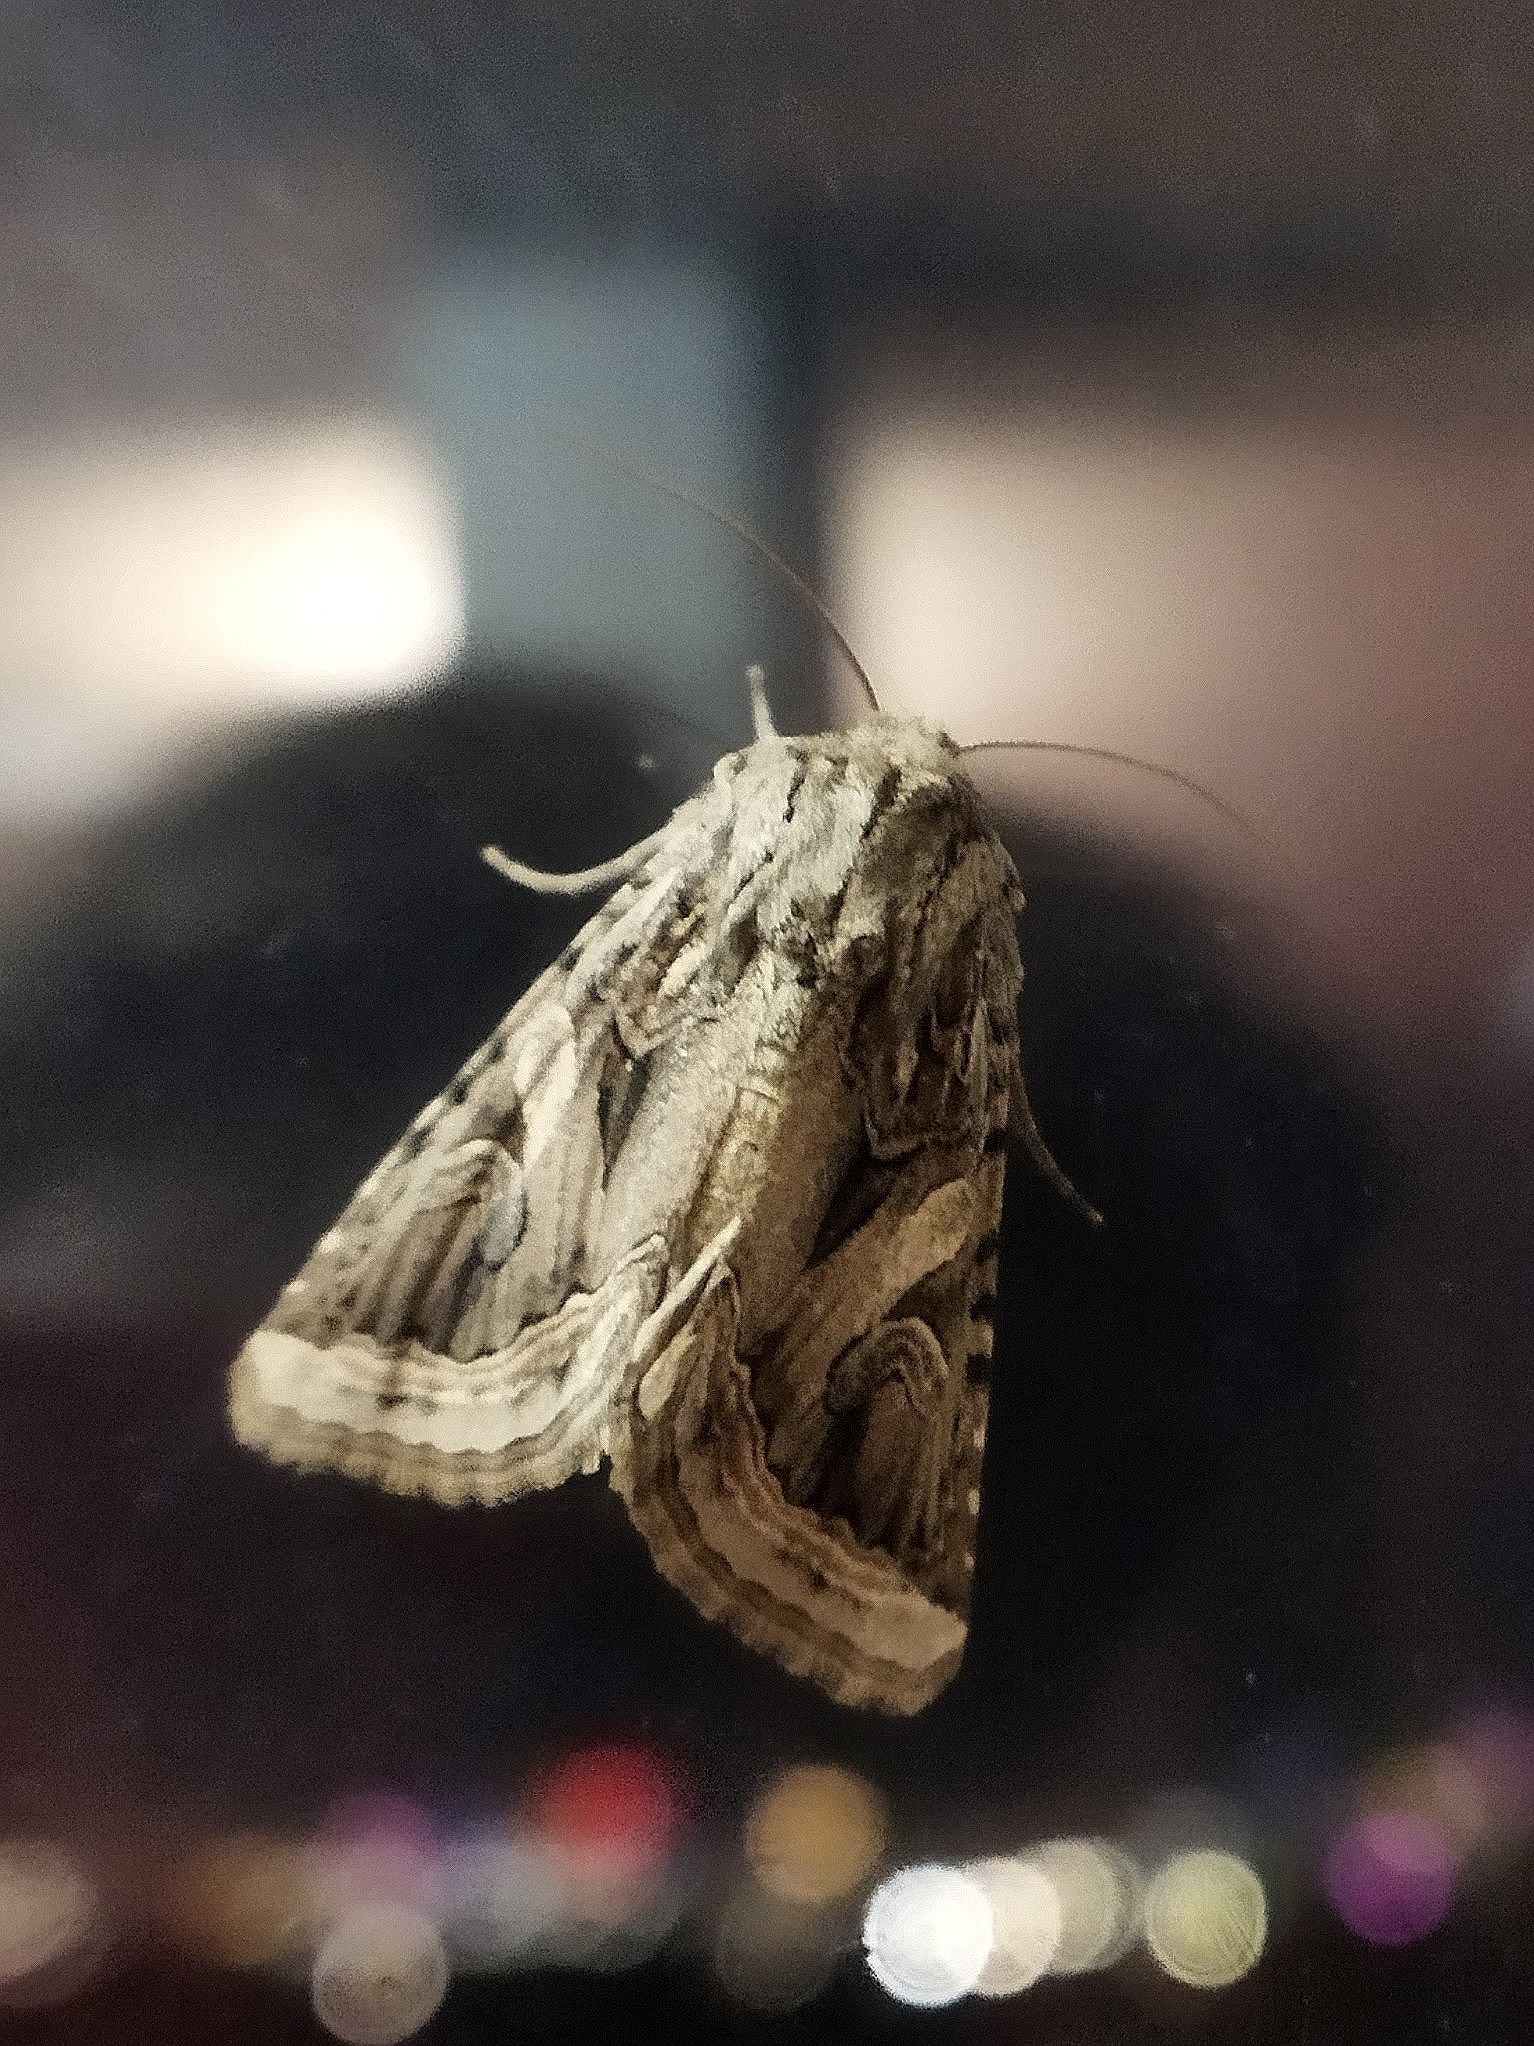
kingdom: Animalia
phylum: Arthropoda
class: Insecta
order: Lepidoptera
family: Noctuidae
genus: Enterpia
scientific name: Enterpia picturata
